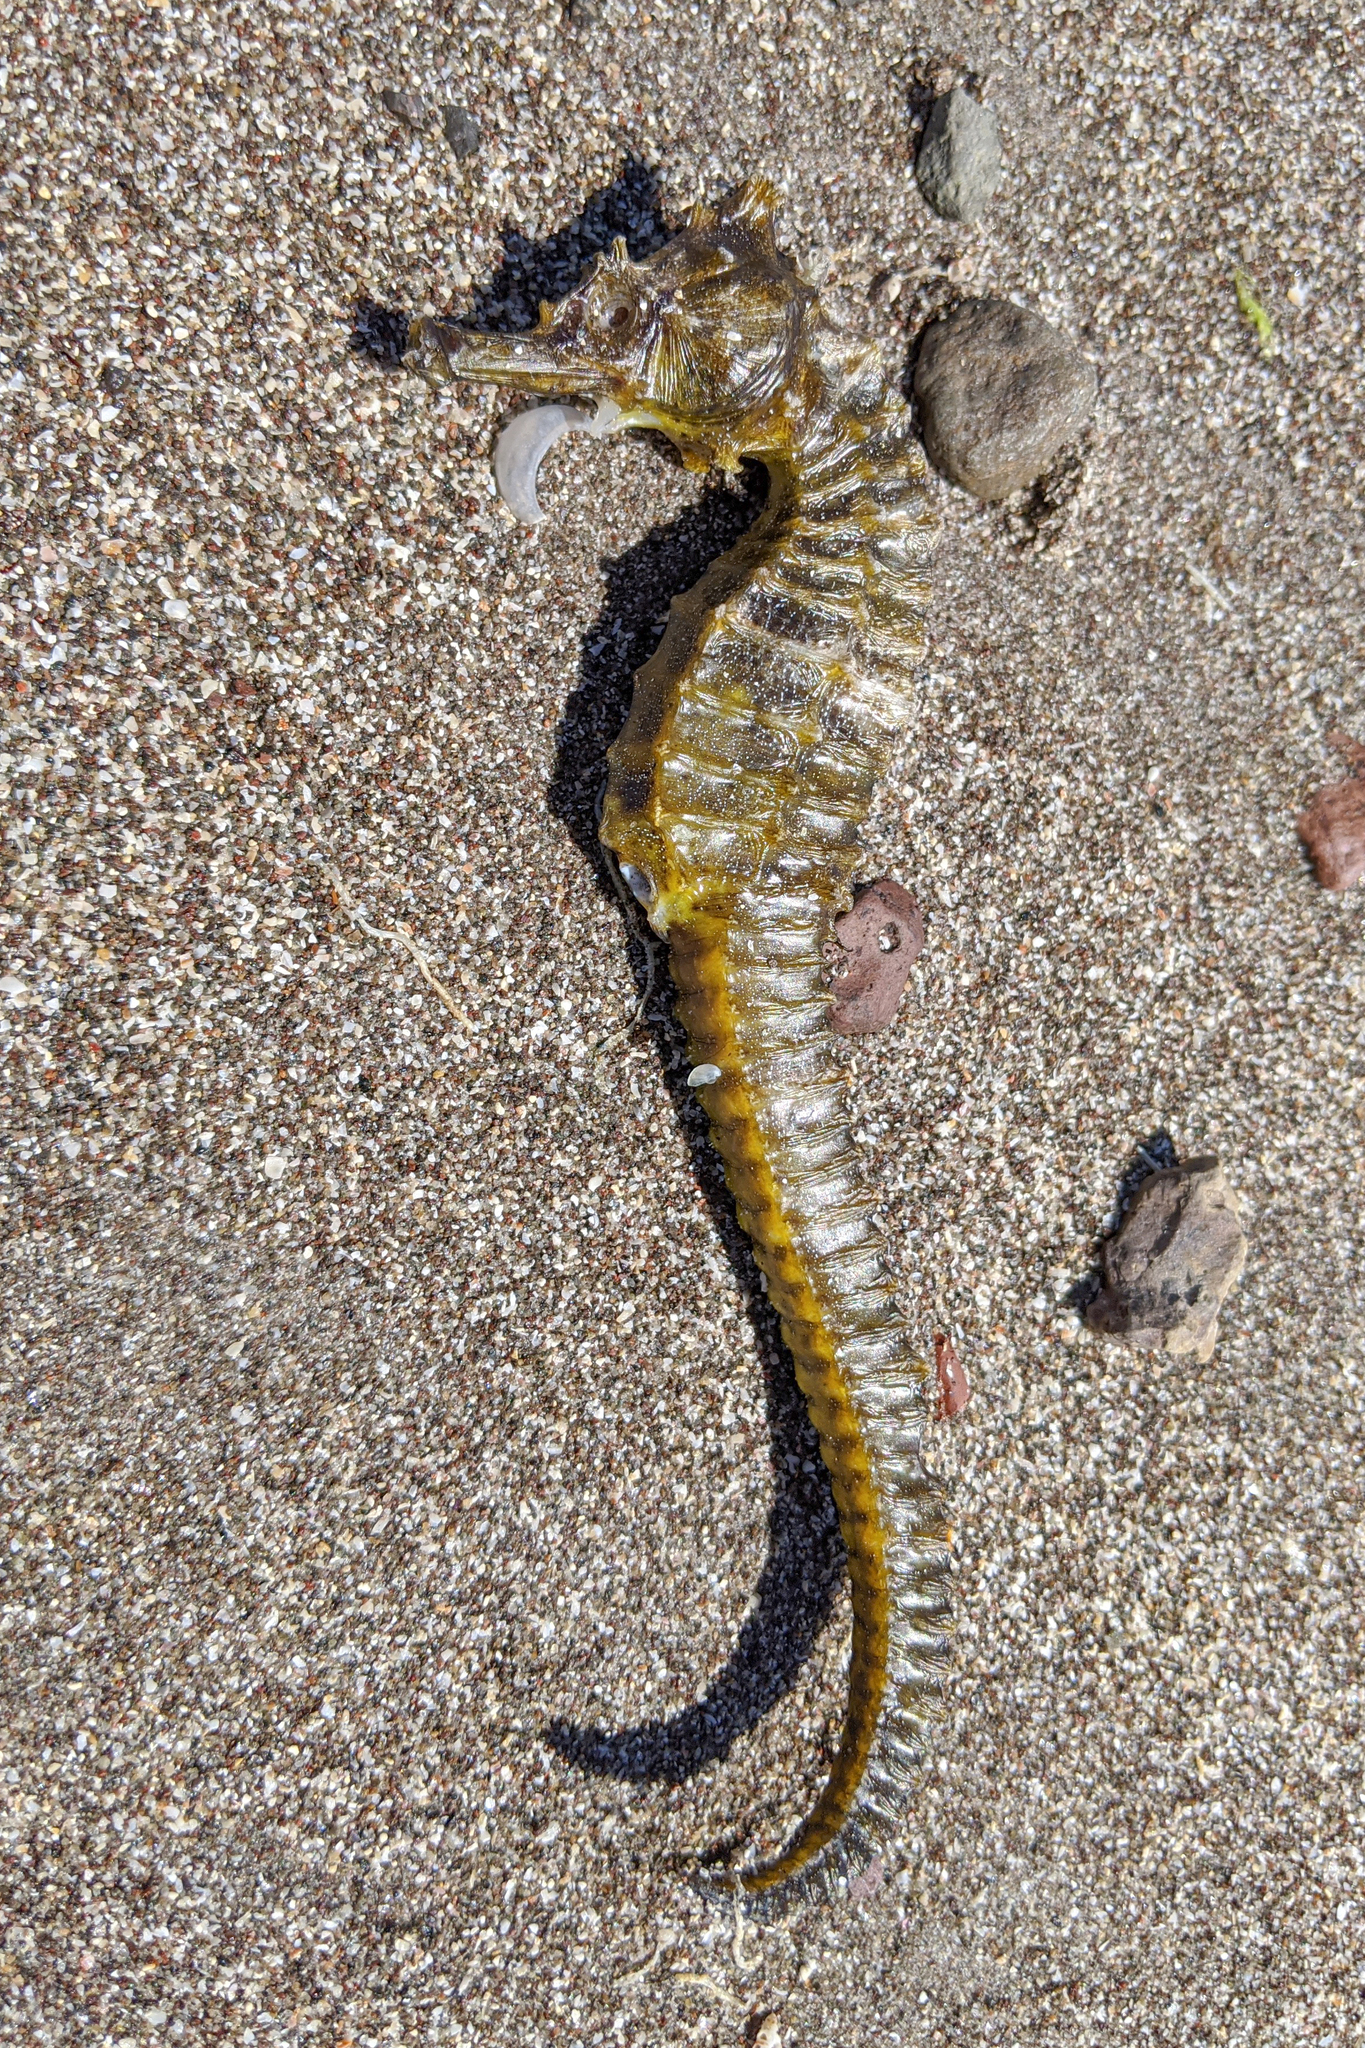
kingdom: Animalia
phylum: Chordata
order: Syngnathiformes
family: Syngnathidae
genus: Hippocampus
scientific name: Hippocampus ingens
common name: Giant seahorse
